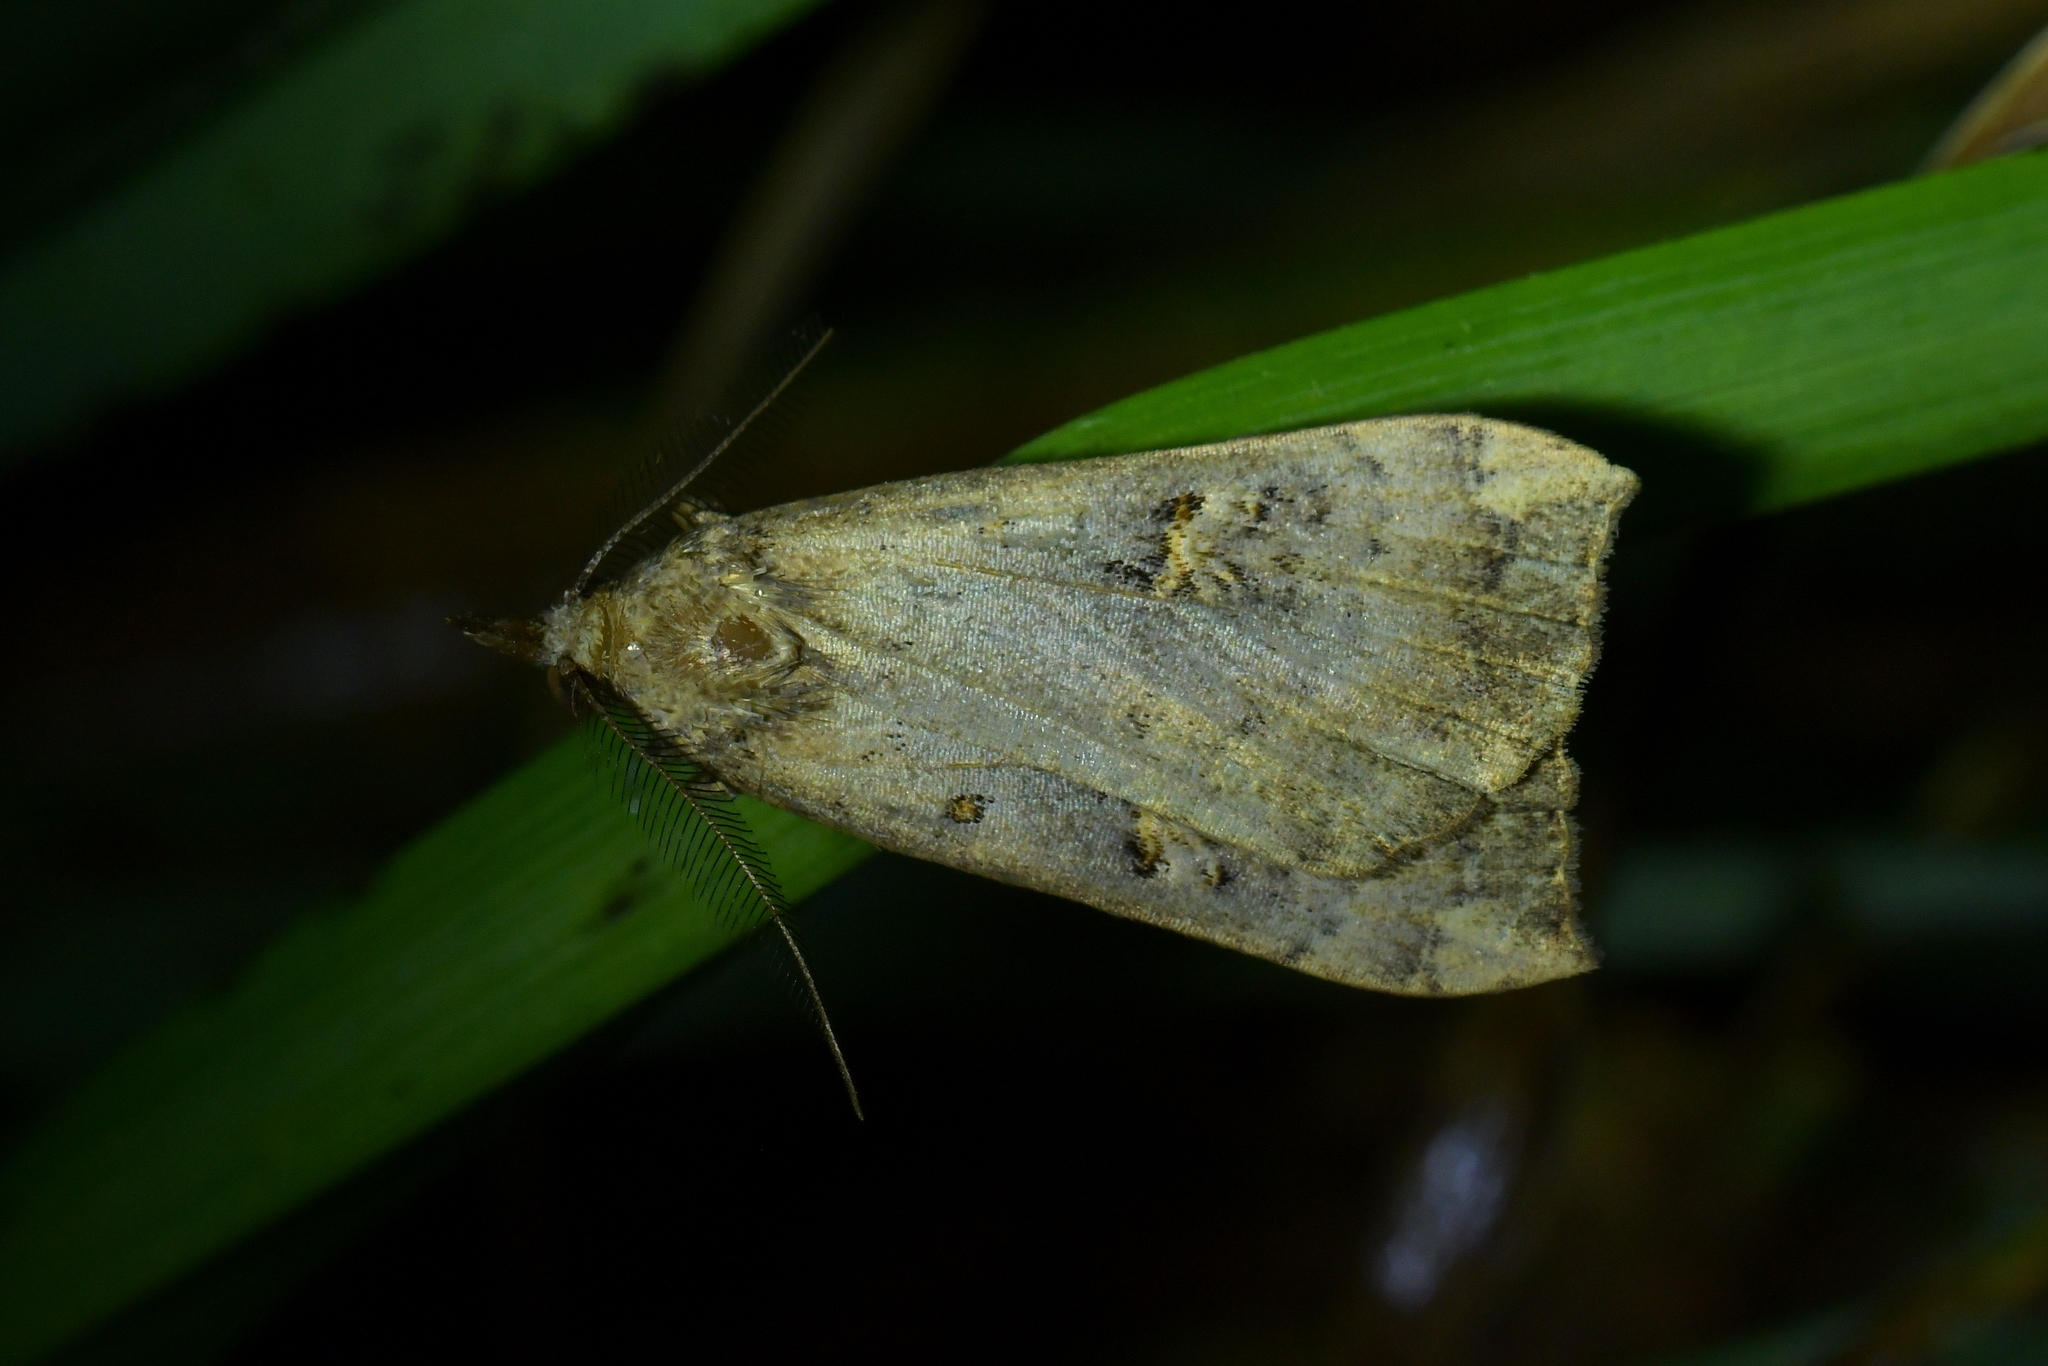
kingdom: Animalia
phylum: Arthropoda
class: Insecta
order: Lepidoptera
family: Erebidae
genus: Rhapsa
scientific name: Rhapsa scotosialis
